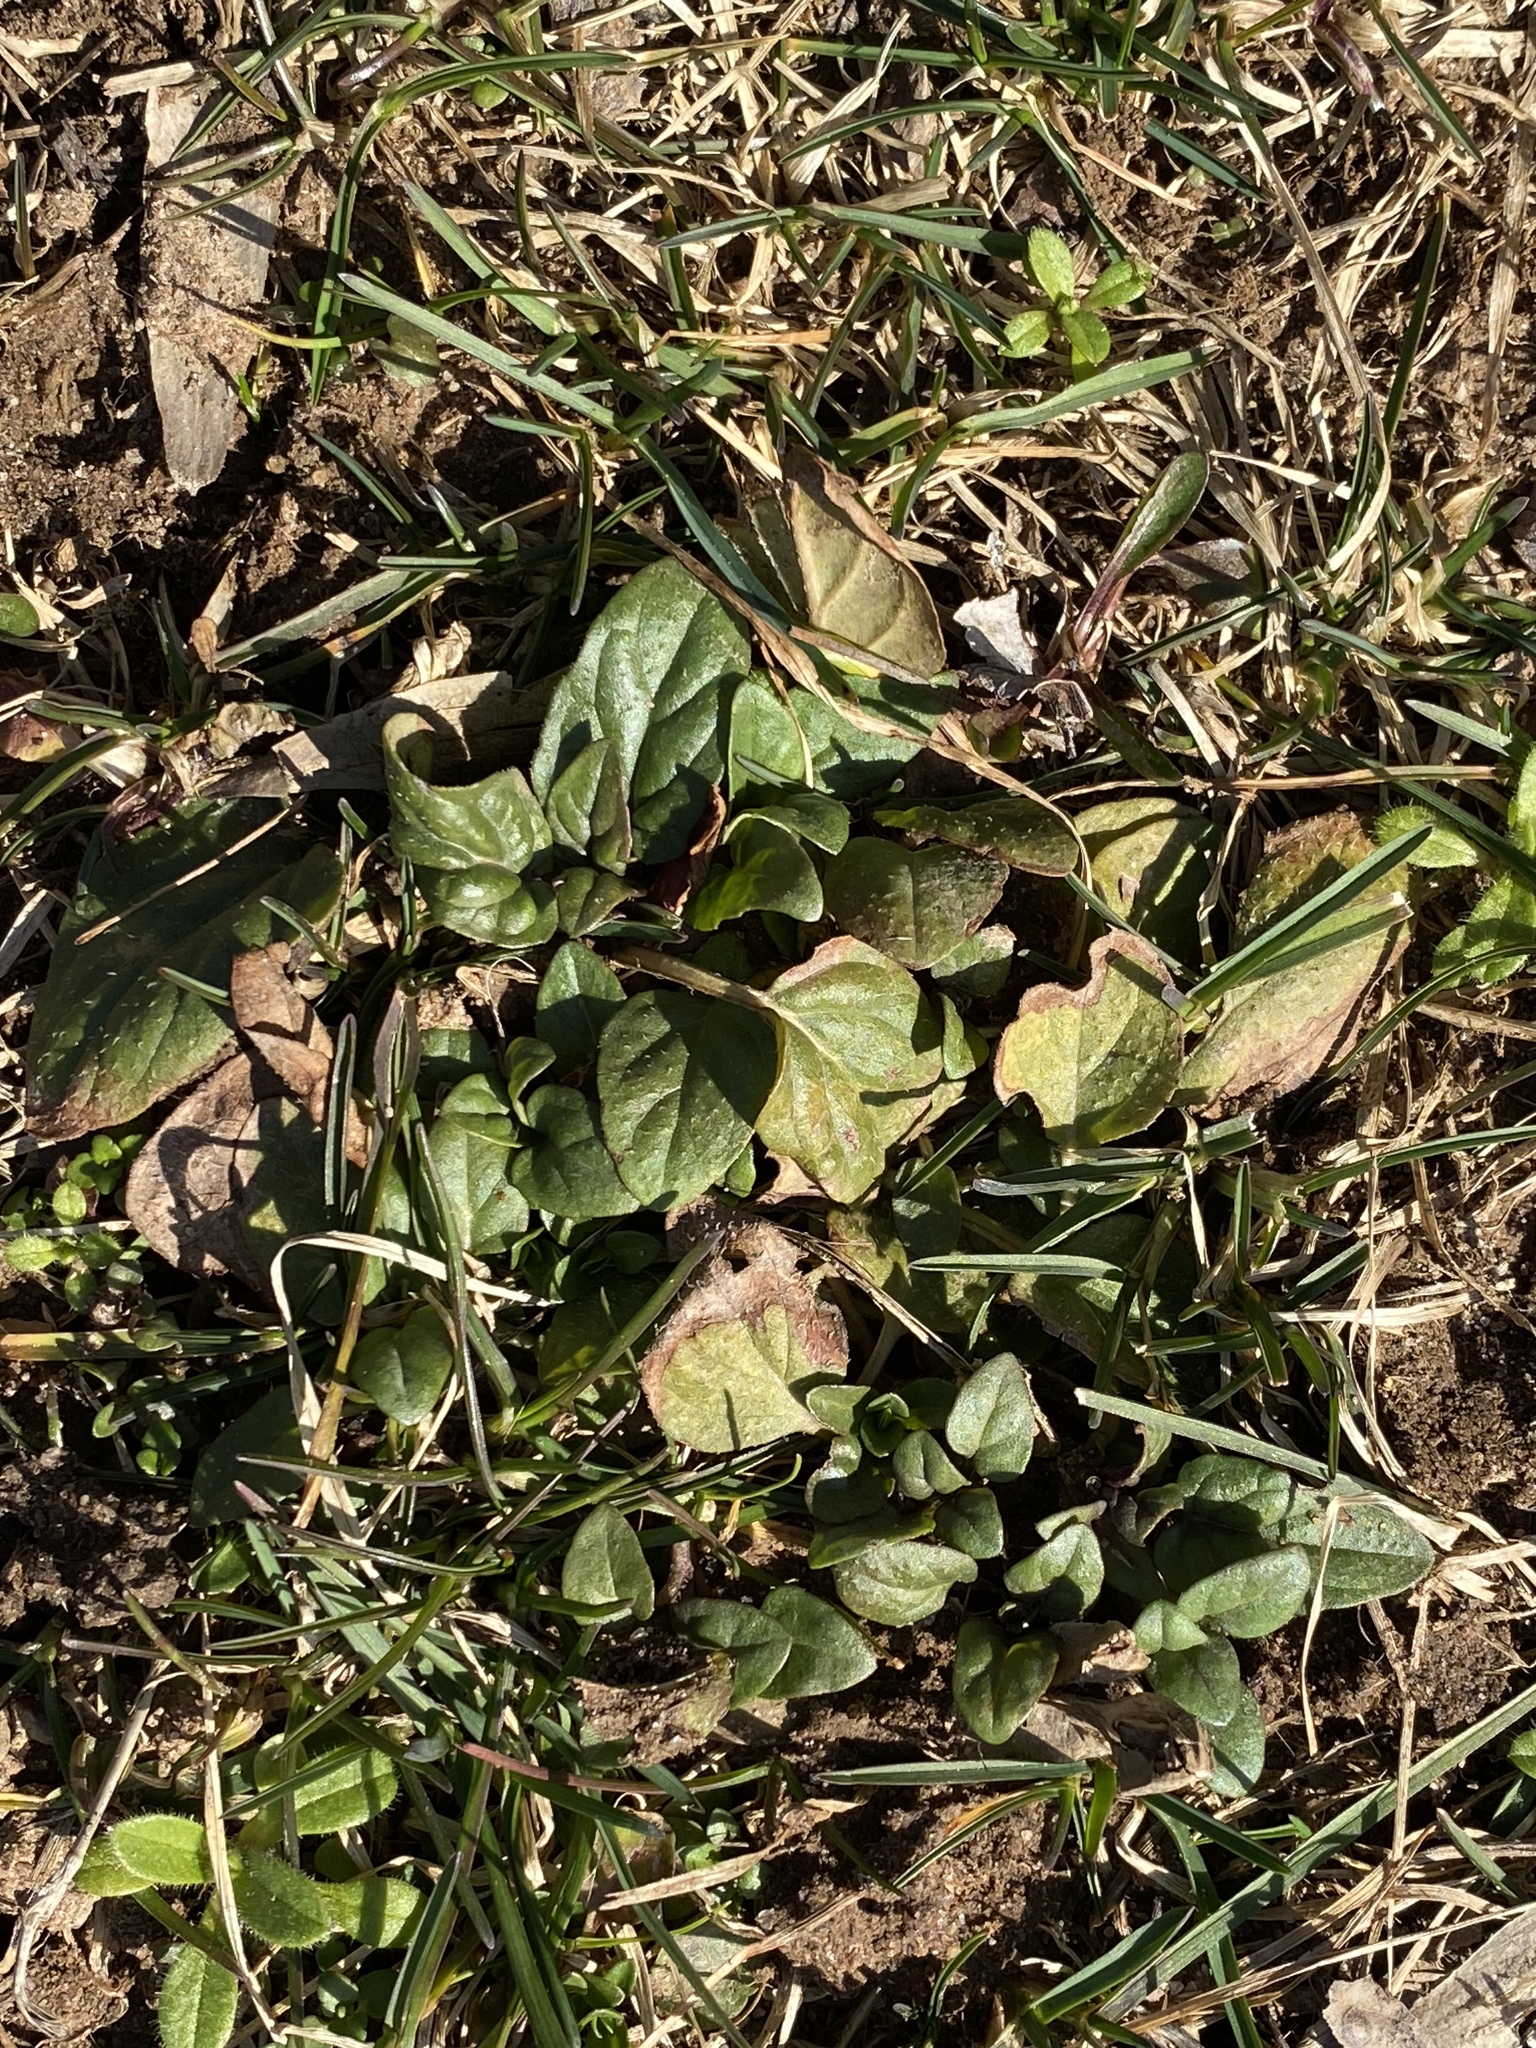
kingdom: Plantae
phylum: Tracheophyta
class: Magnoliopsida
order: Lamiales
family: Lamiaceae
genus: Prunella
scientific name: Prunella vulgaris
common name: Heal-all
